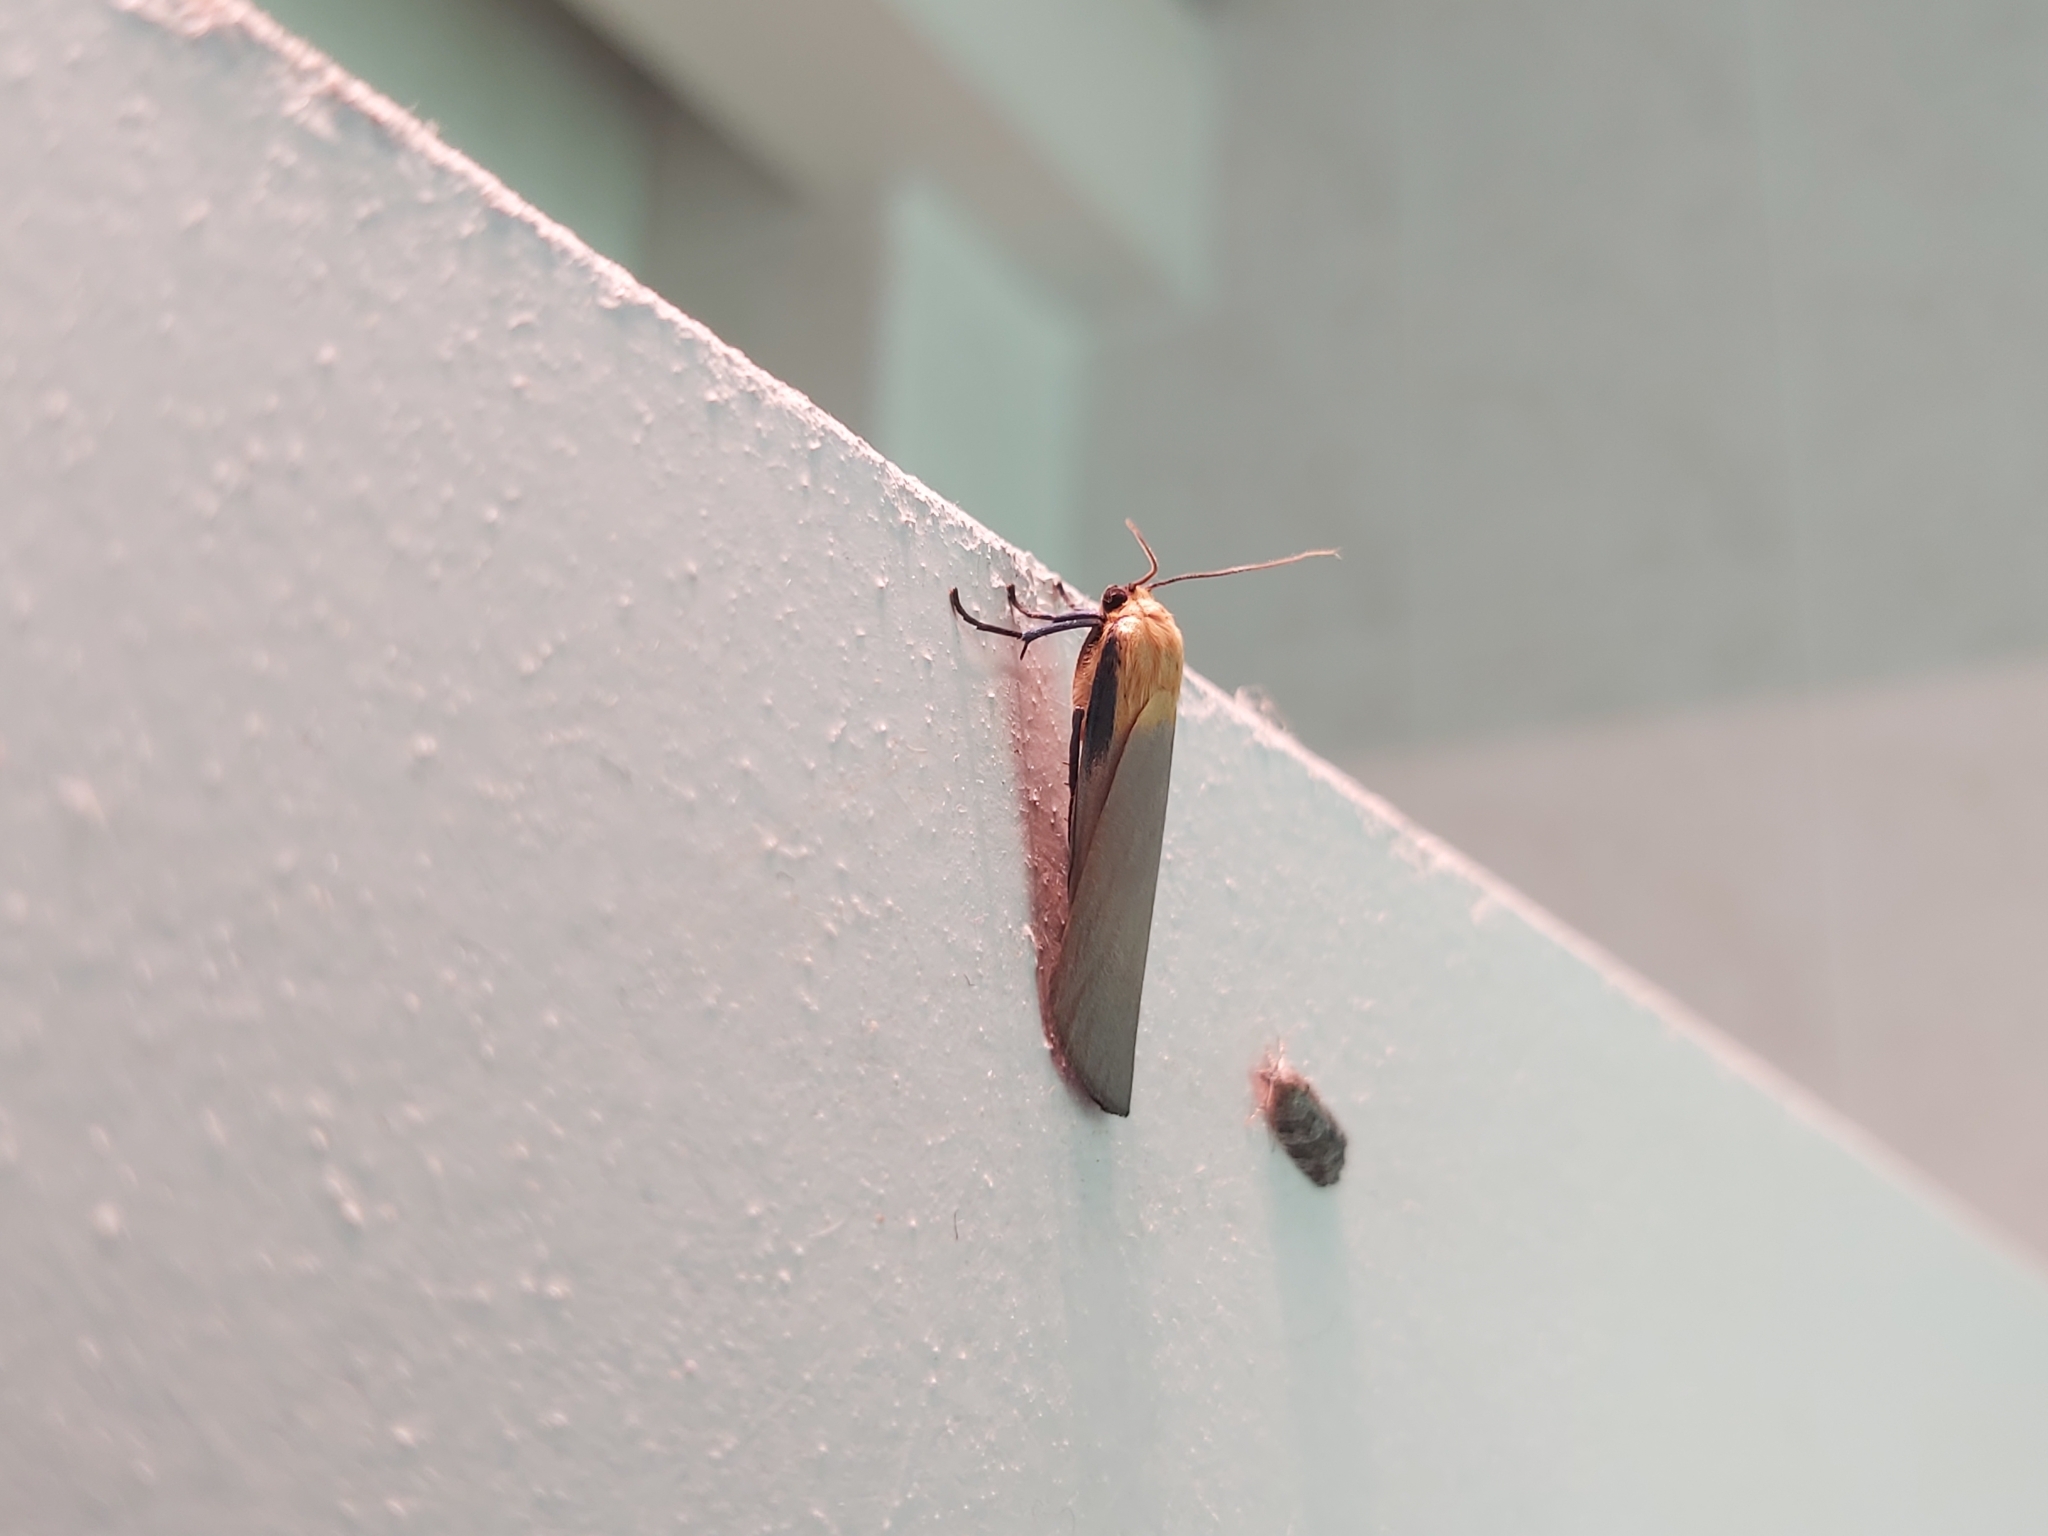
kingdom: Animalia
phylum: Arthropoda
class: Insecta
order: Lepidoptera
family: Erebidae
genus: Lithosia
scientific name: Lithosia quadra
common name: Four-spotted footman
